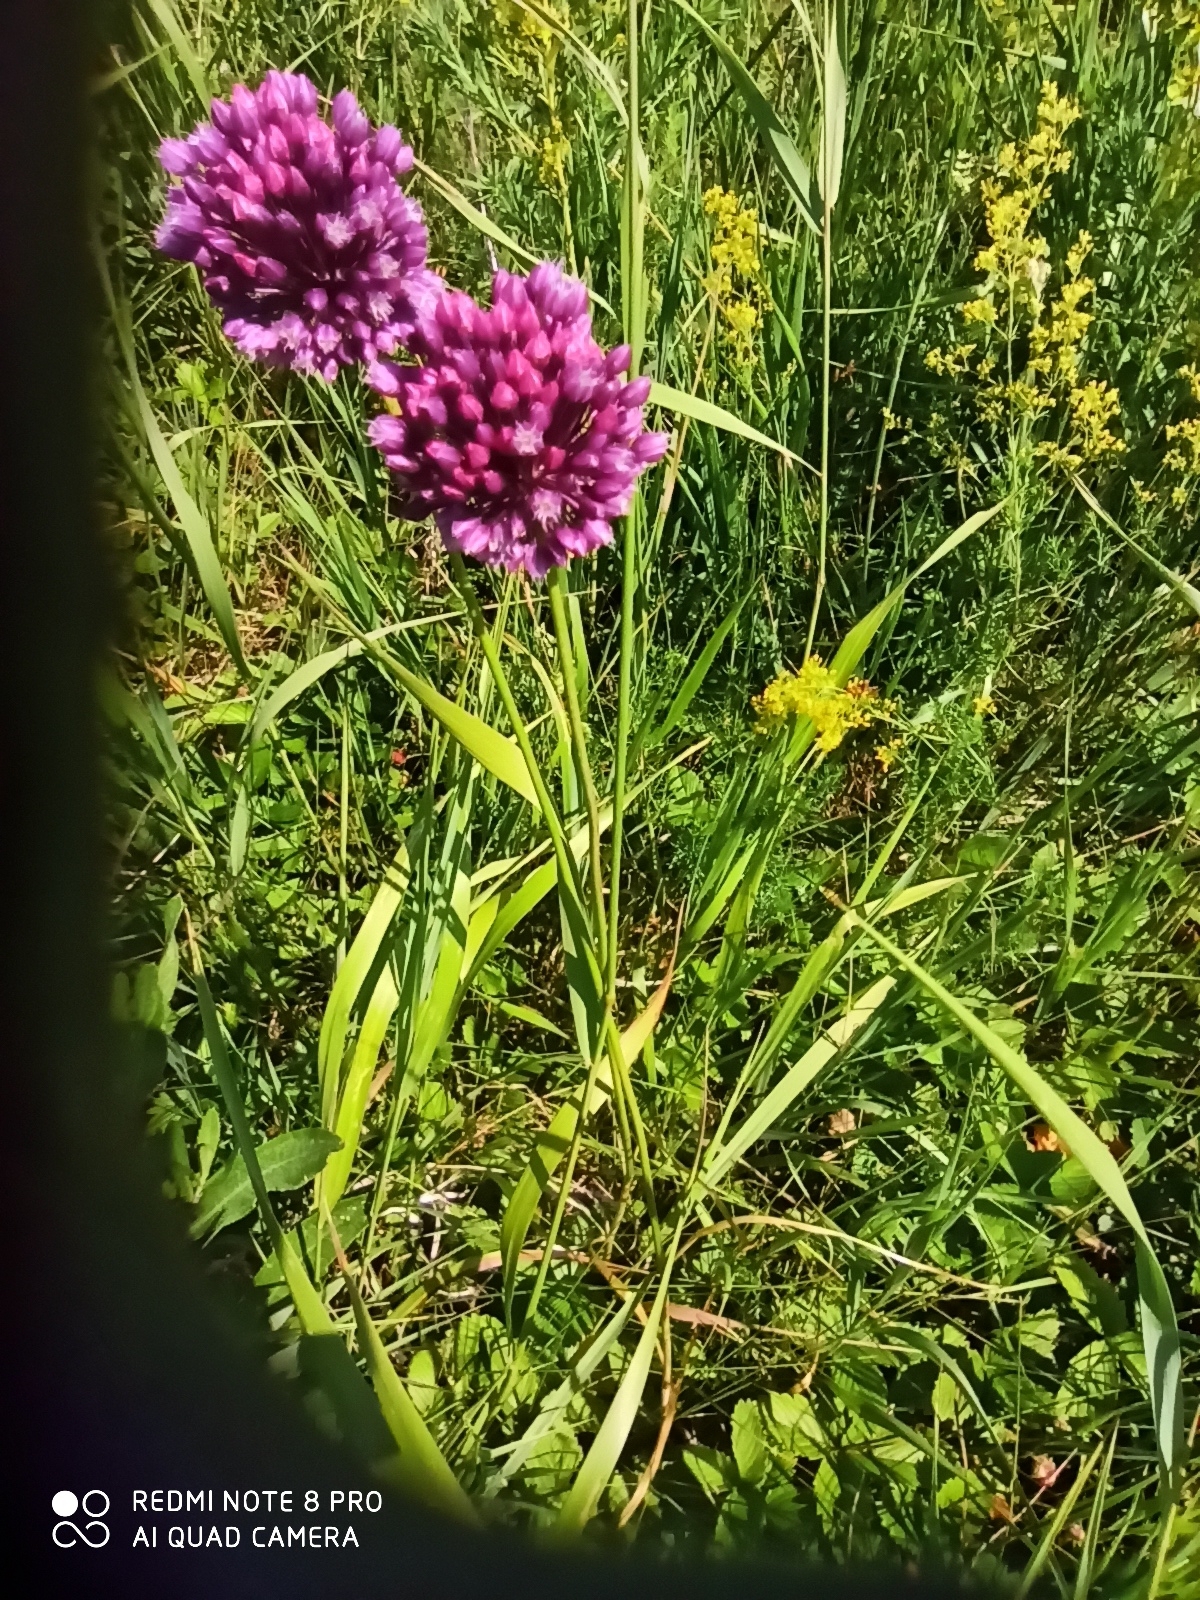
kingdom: Plantae
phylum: Tracheophyta
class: Liliopsida
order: Asparagales
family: Amaryllidaceae
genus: Allium
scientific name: Allium rotundum
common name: Sand leek
